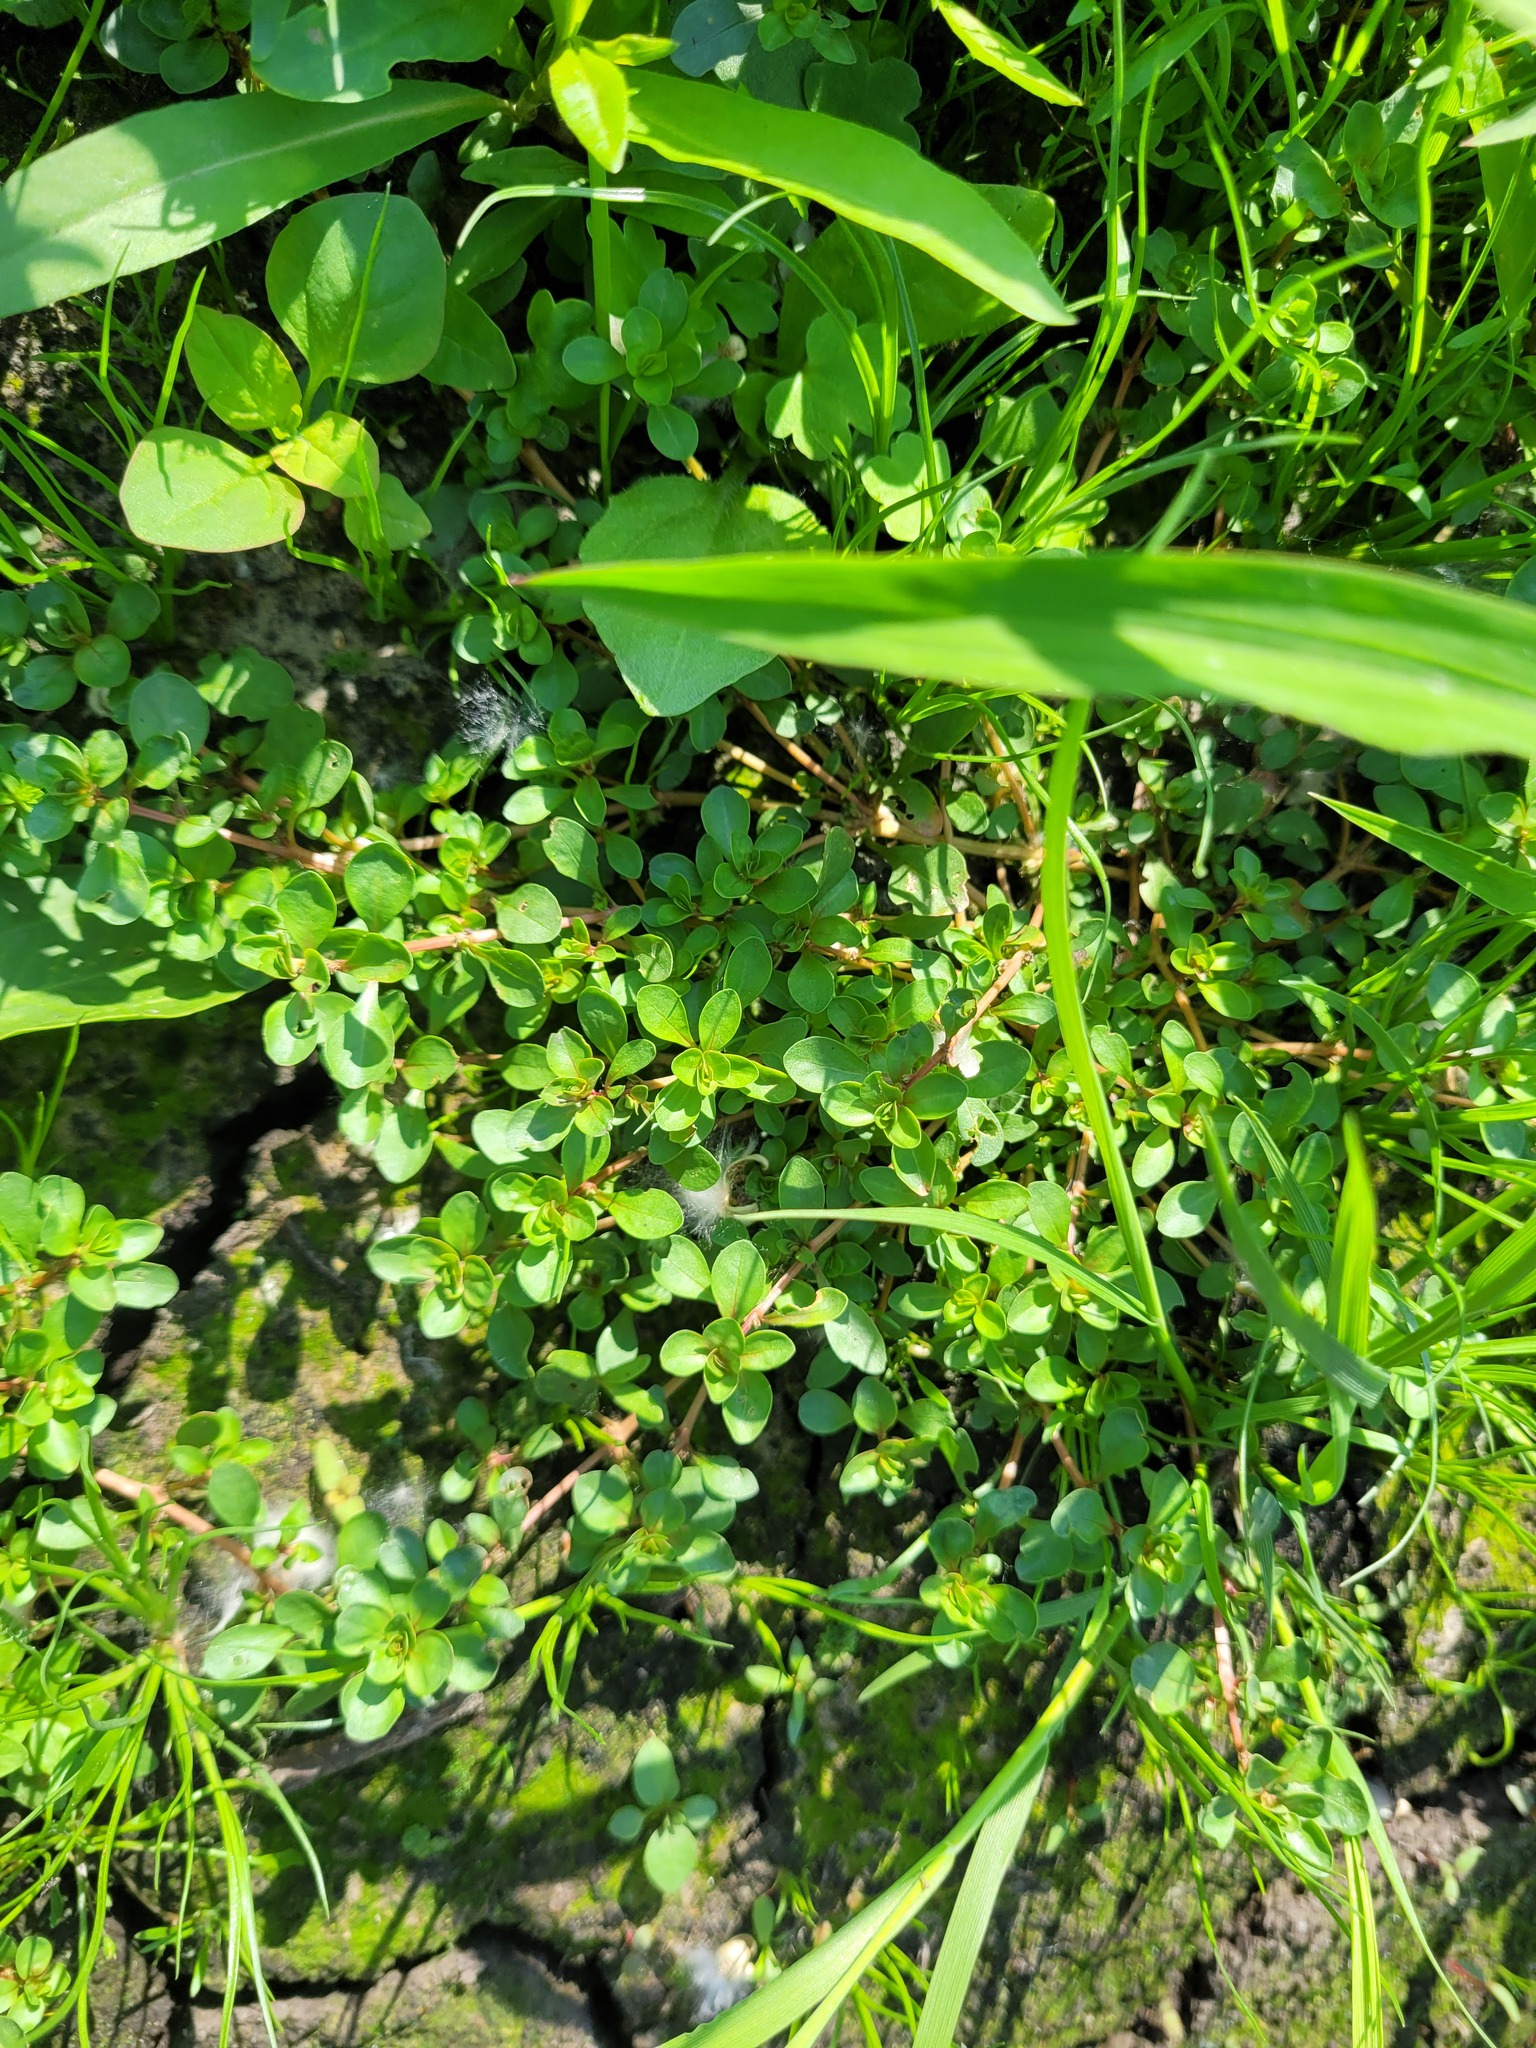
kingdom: Plantae
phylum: Tracheophyta
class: Magnoliopsida
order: Myrtales
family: Lythraceae
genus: Lythrum
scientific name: Lythrum portula
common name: Water purslane
